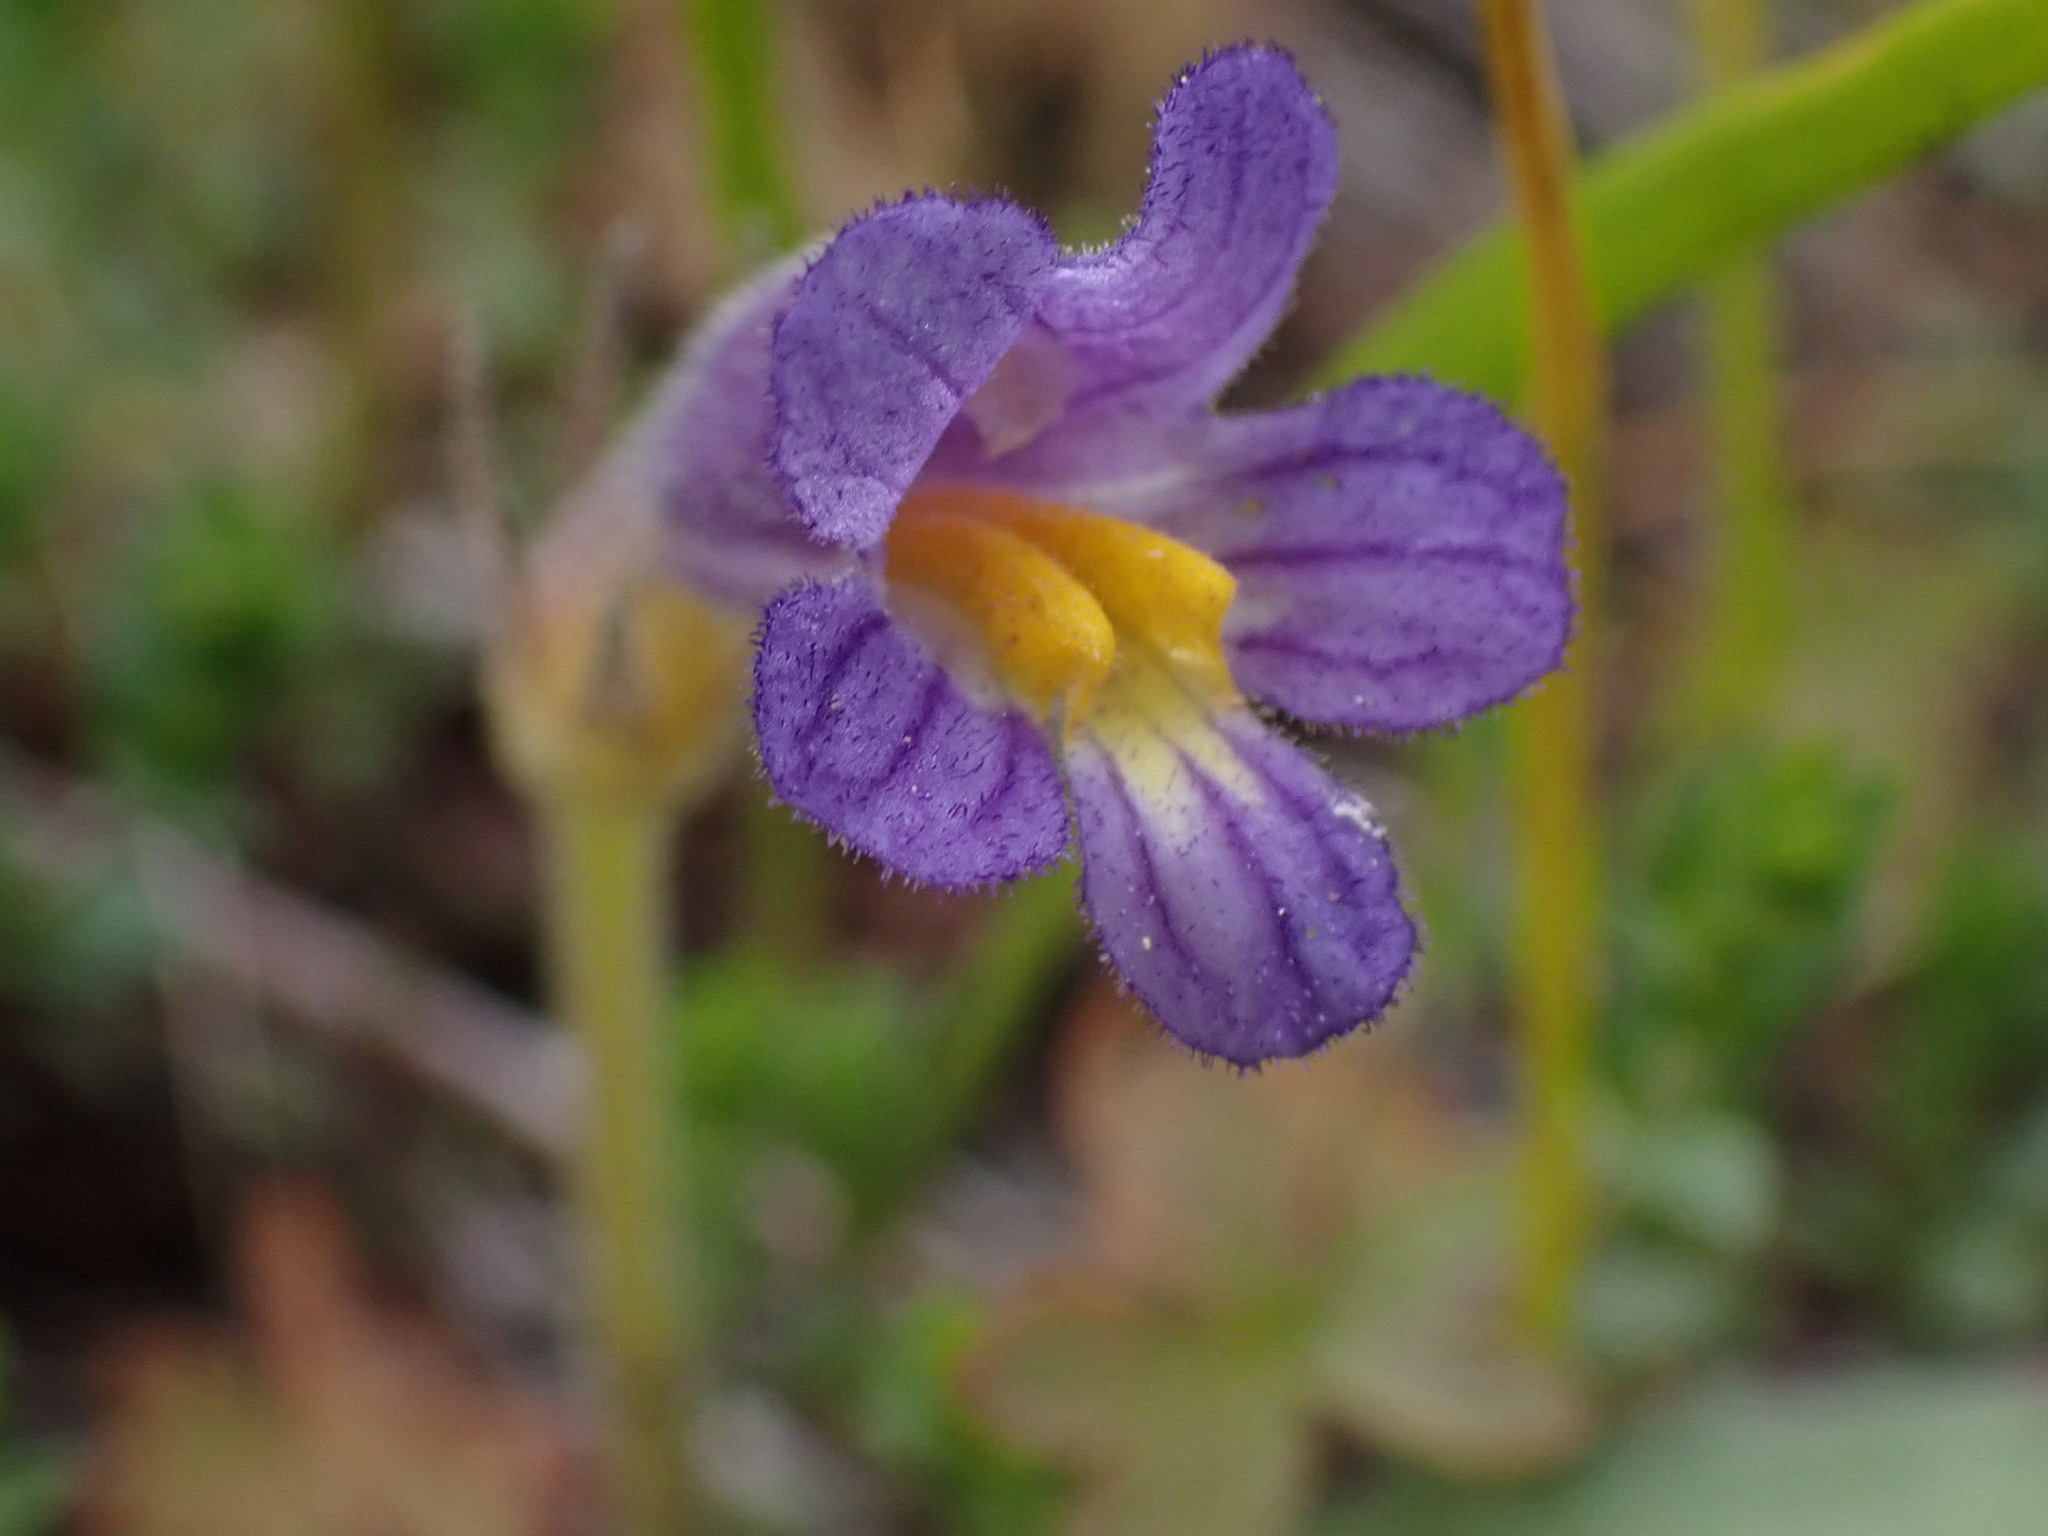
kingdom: Plantae
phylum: Tracheophyta
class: Magnoliopsida
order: Lamiales
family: Orobanchaceae
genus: Aphyllon
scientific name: Aphyllon uniflorum
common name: One-flowered broomrape
